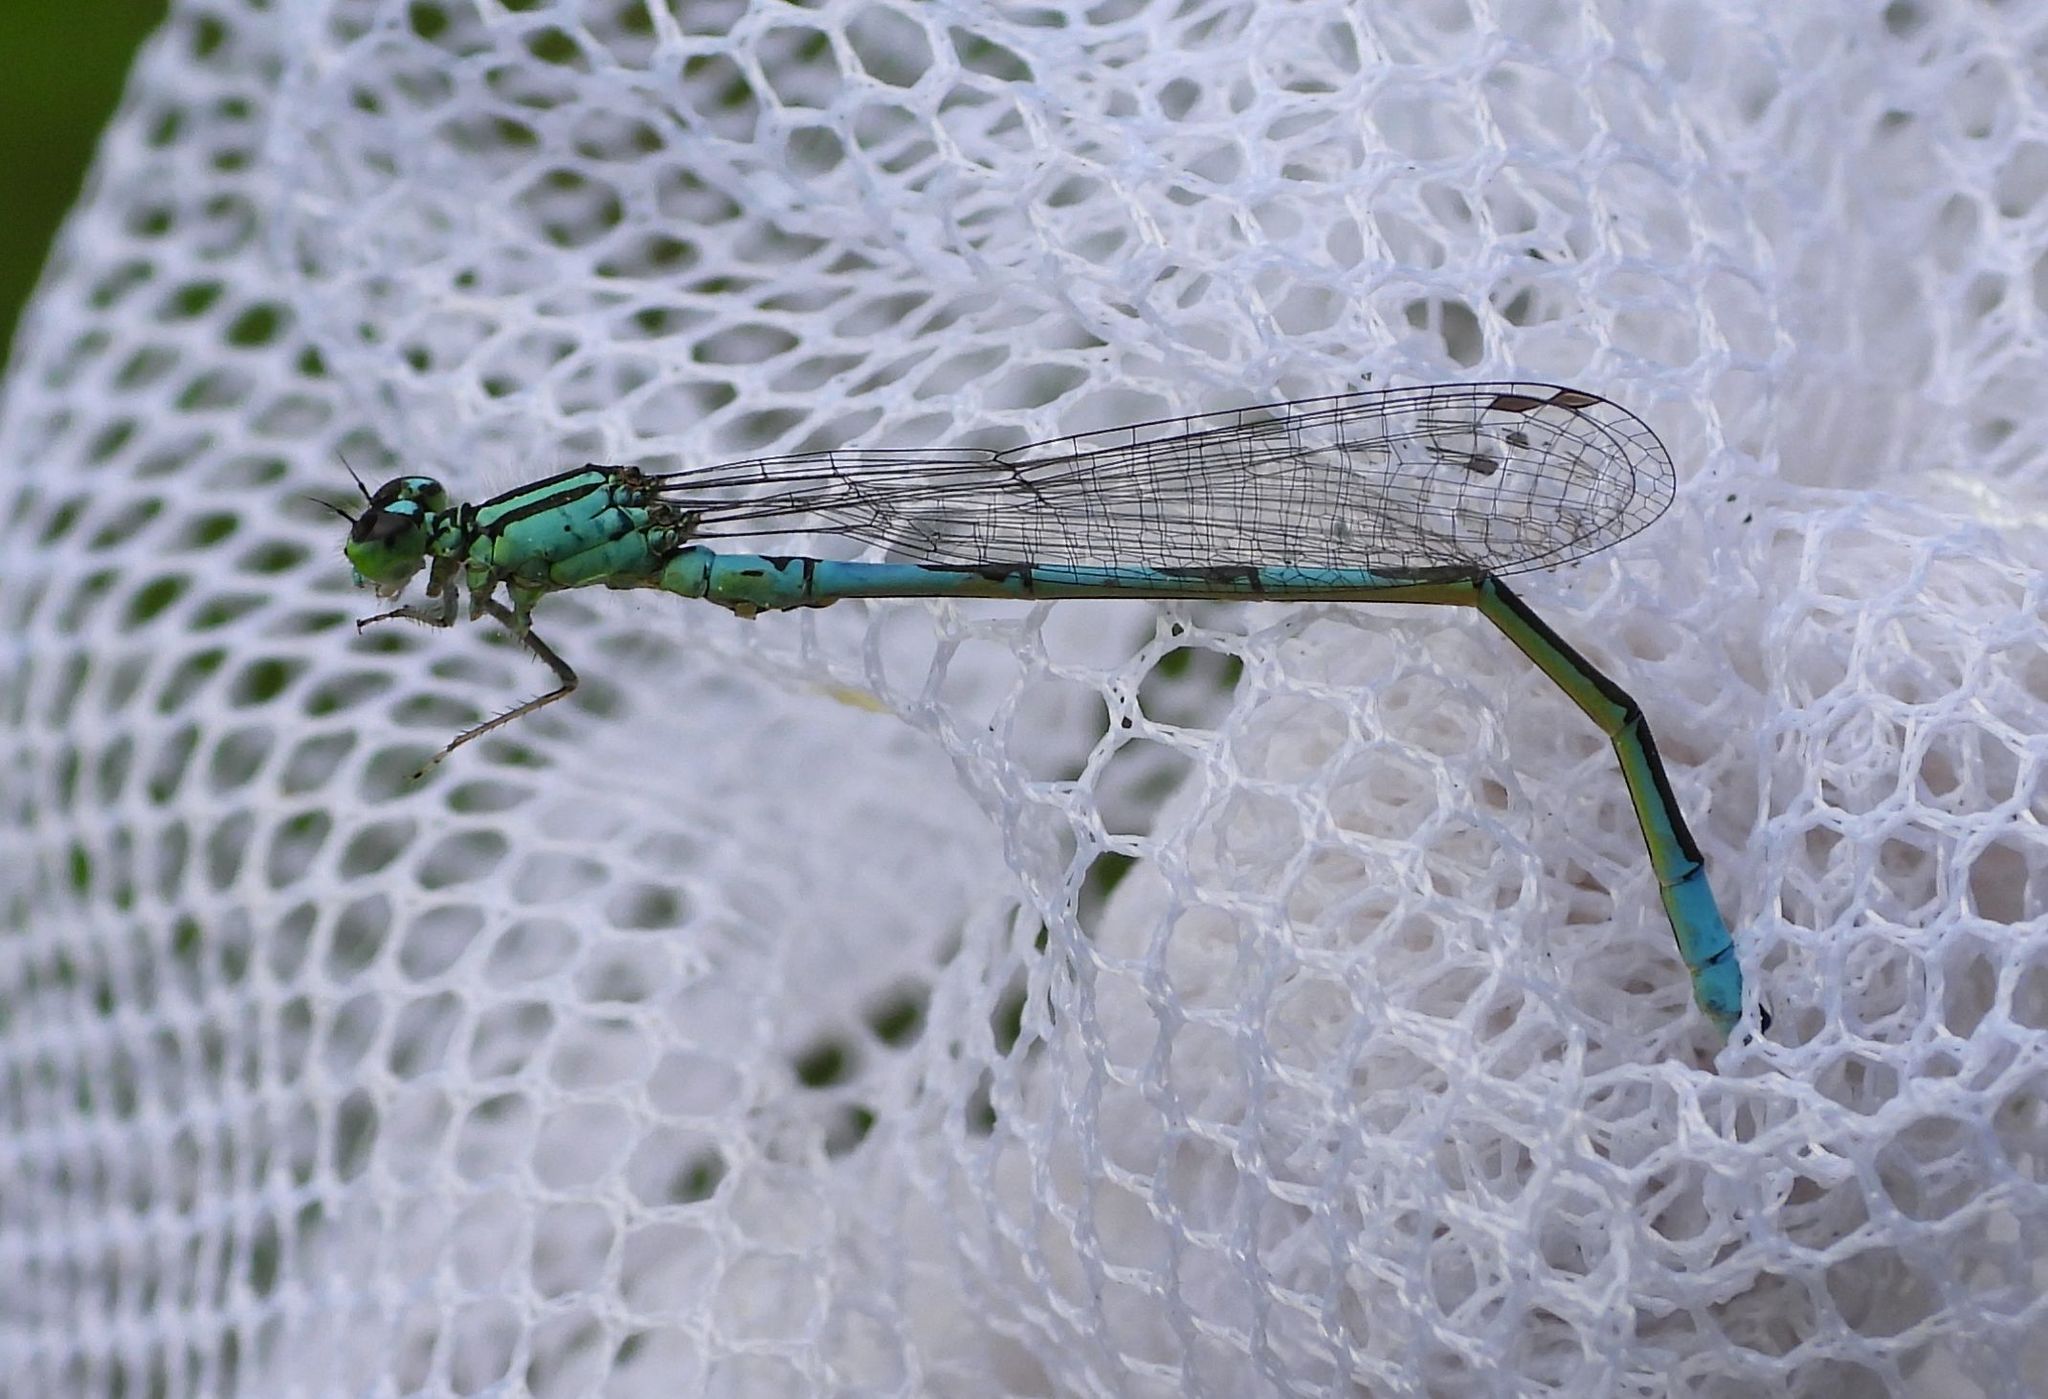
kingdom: Animalia
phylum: Arthropoda
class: Insecta
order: Odonata
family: Coenagrionidae
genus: Coenagrion
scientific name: Coenagrion resolutum
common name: Taiga bluet
